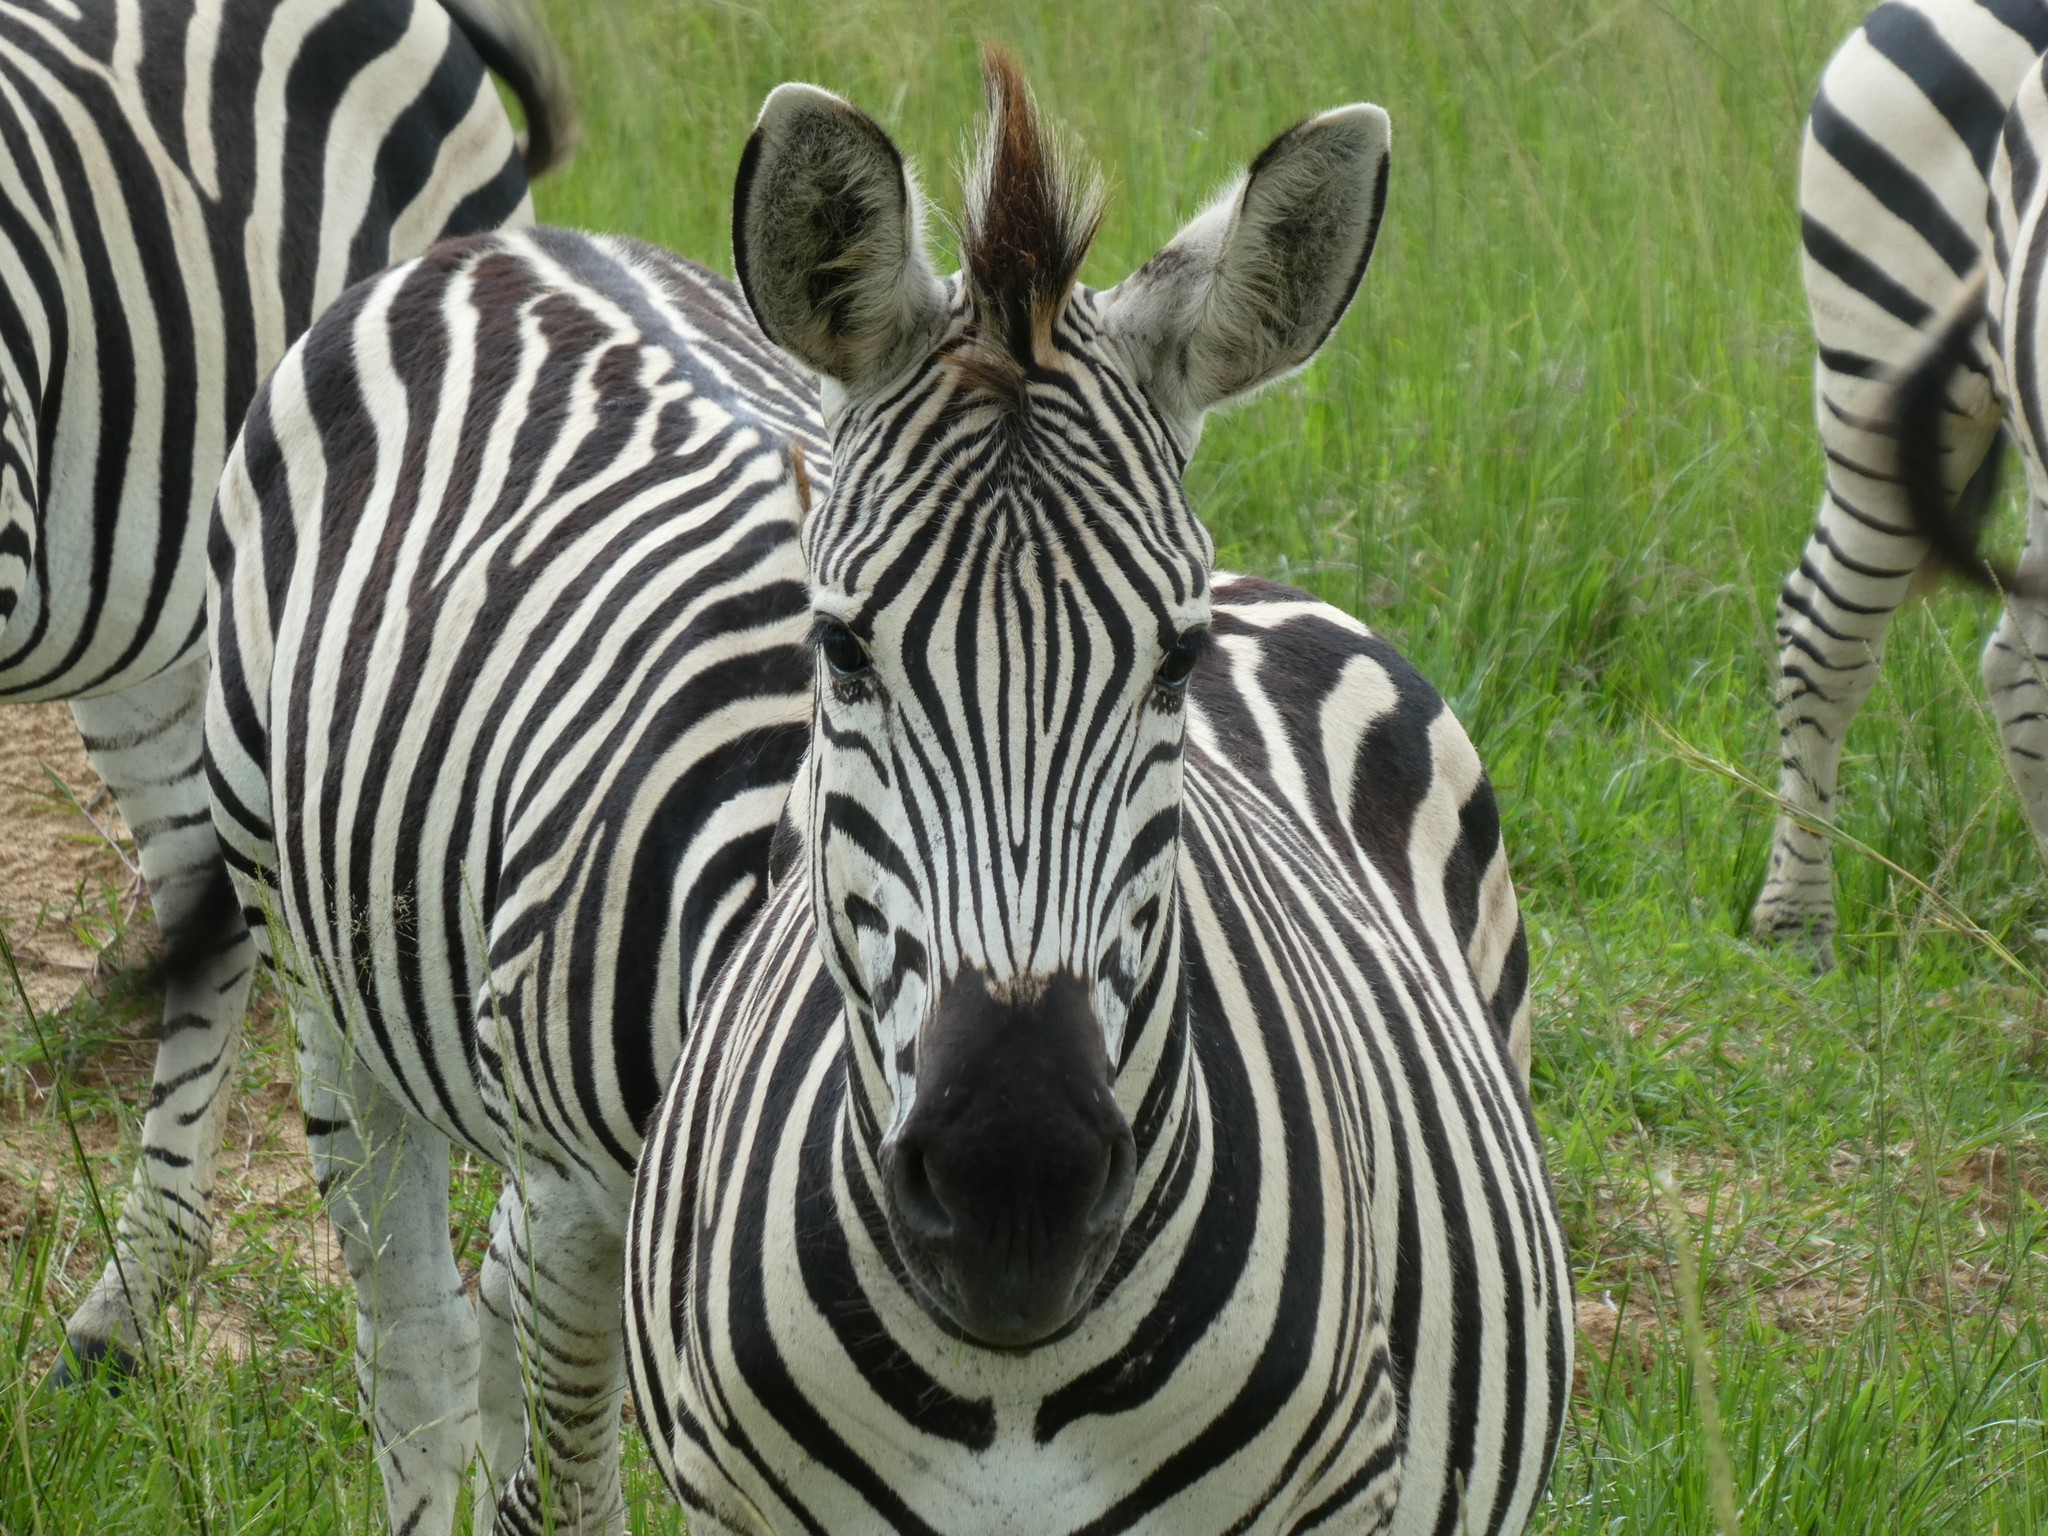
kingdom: Animalia
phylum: Chordata
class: Mammalia
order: Perissodactyla
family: Equidae
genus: Equus
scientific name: Equus quagga
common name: Plains zebra
